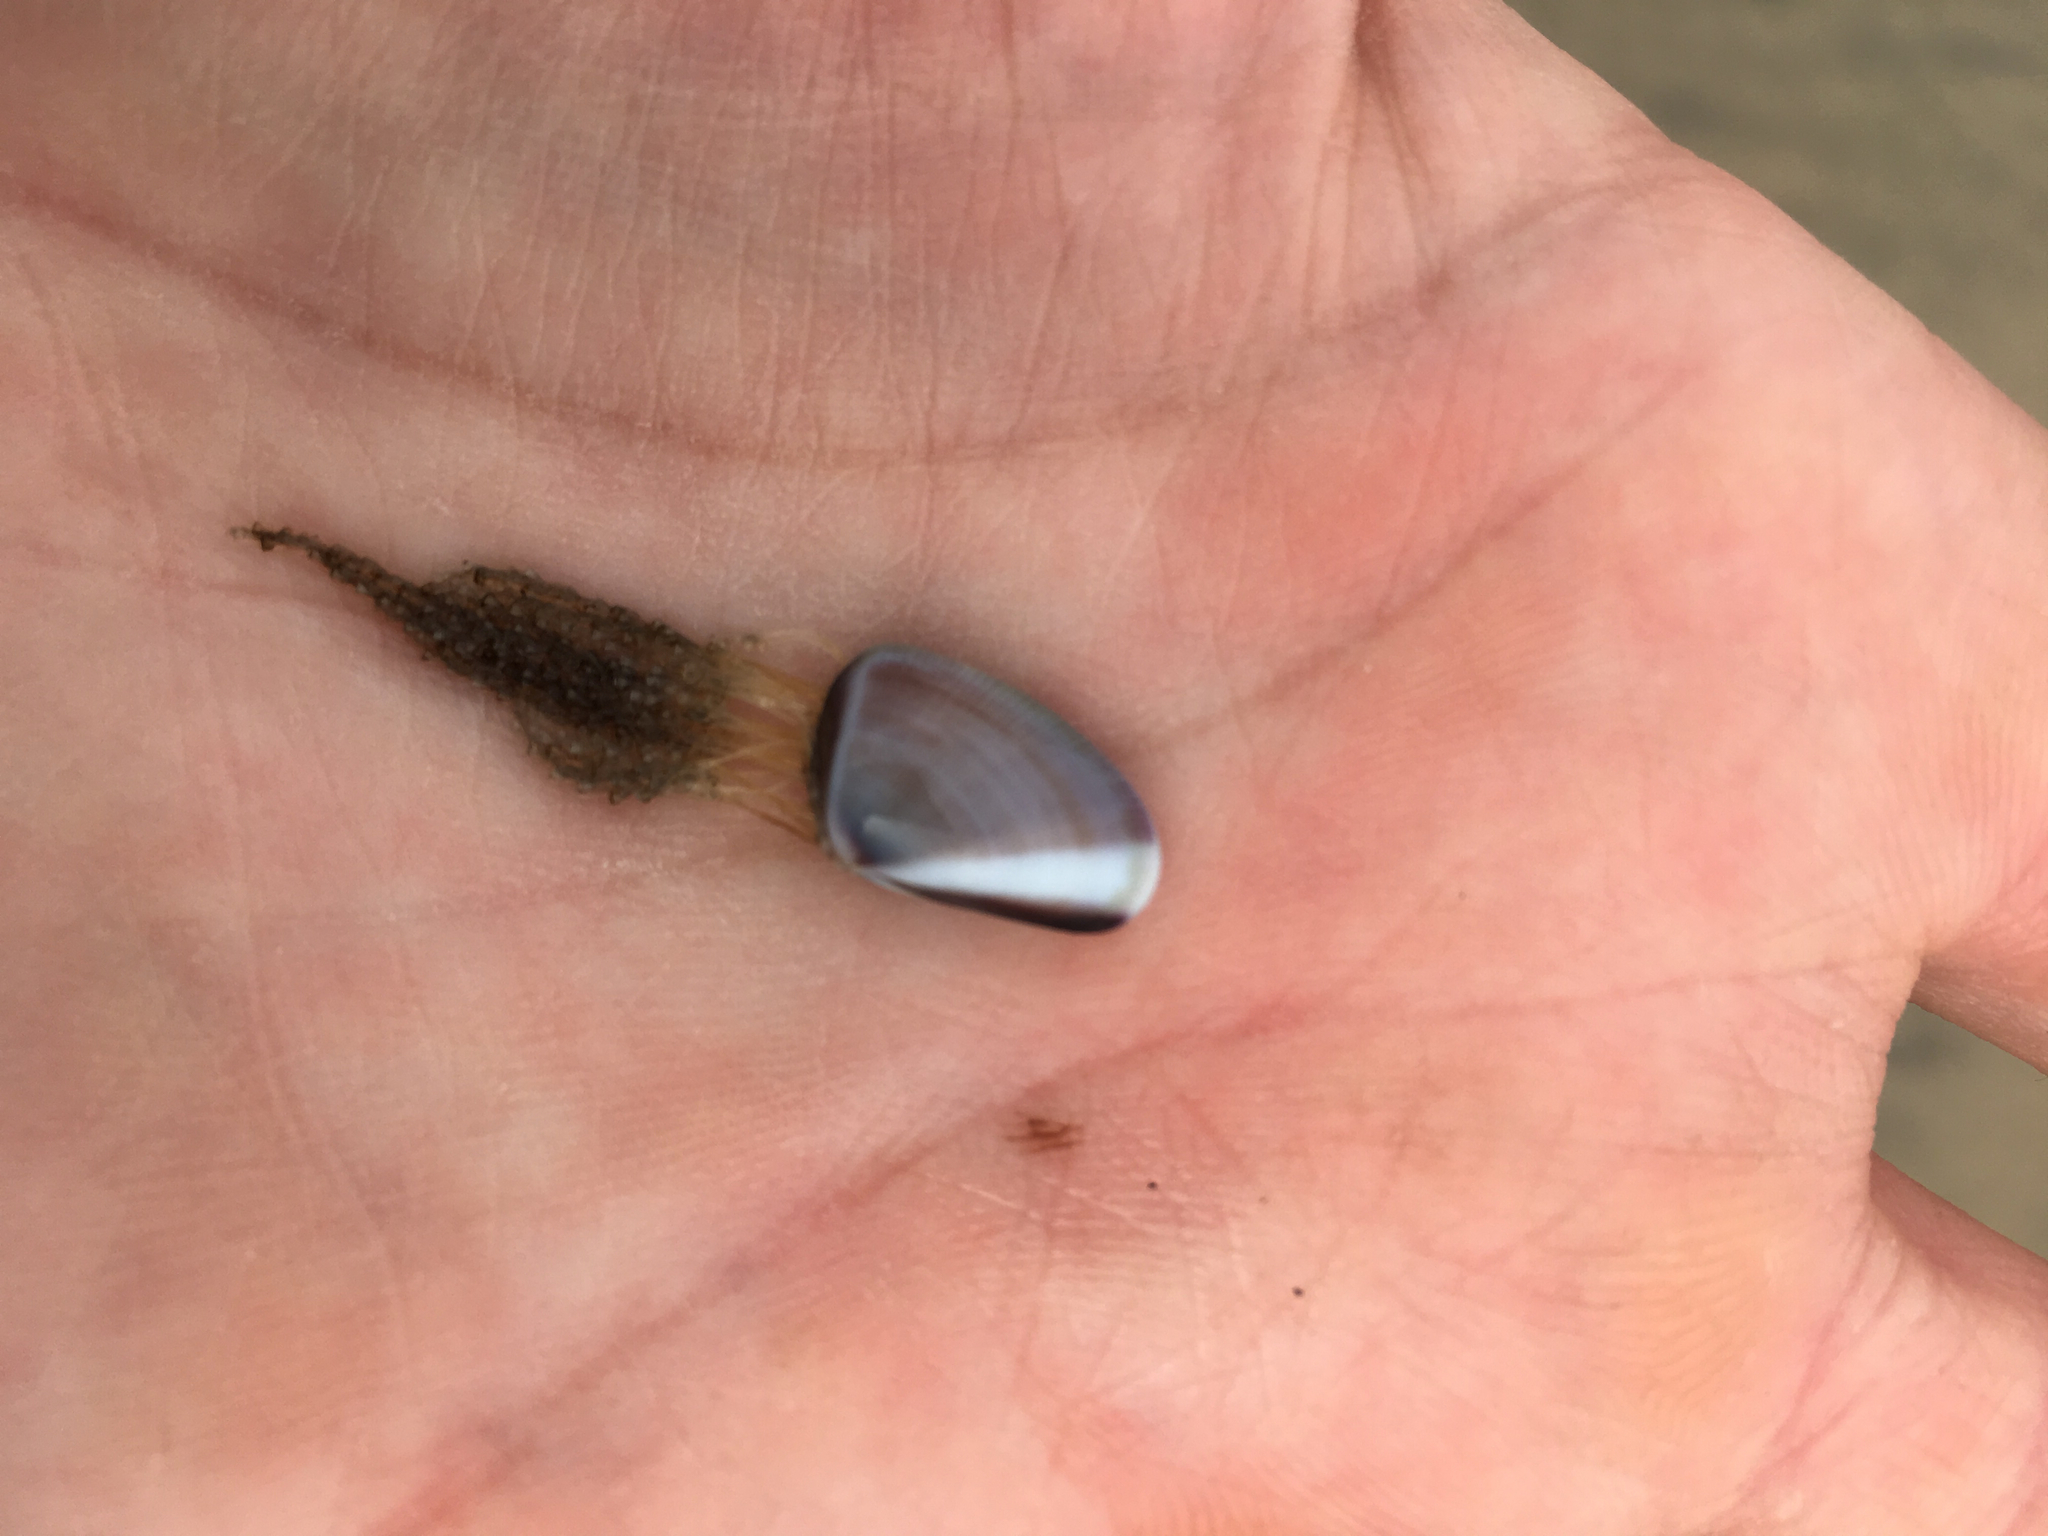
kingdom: Animalia
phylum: Mollusca
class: Bivalvia
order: Cardiida
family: Donacidae
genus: Donax
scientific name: Donax gouldii
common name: Gould beanclam
